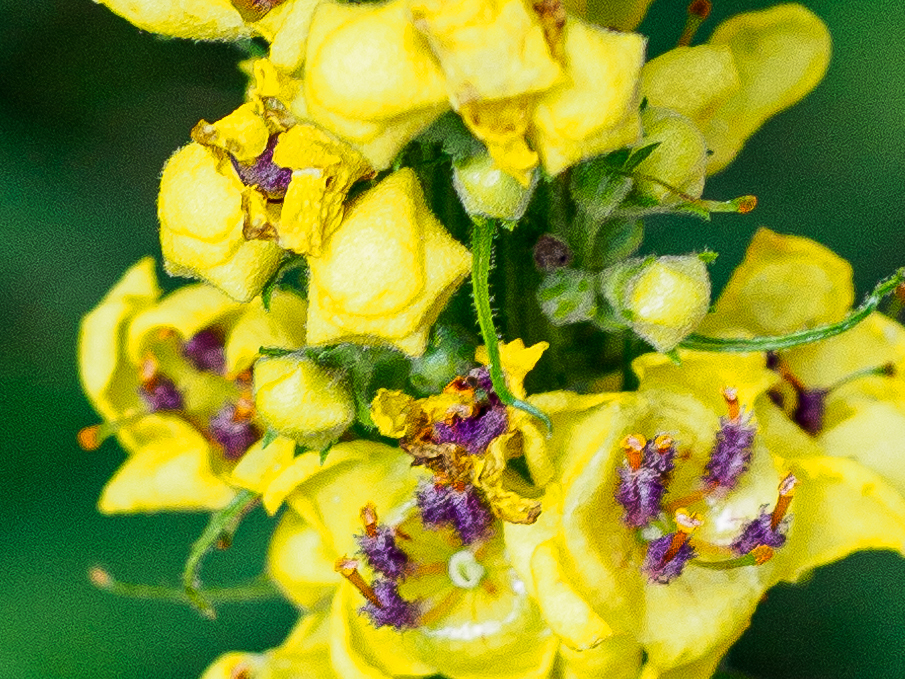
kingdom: Plantae
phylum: Tracheophyta
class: Magnoliopsida
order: Lamiales
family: Scrophulariaceae
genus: Verbascum
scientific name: Verbascum nigrum
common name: Dark mullein
